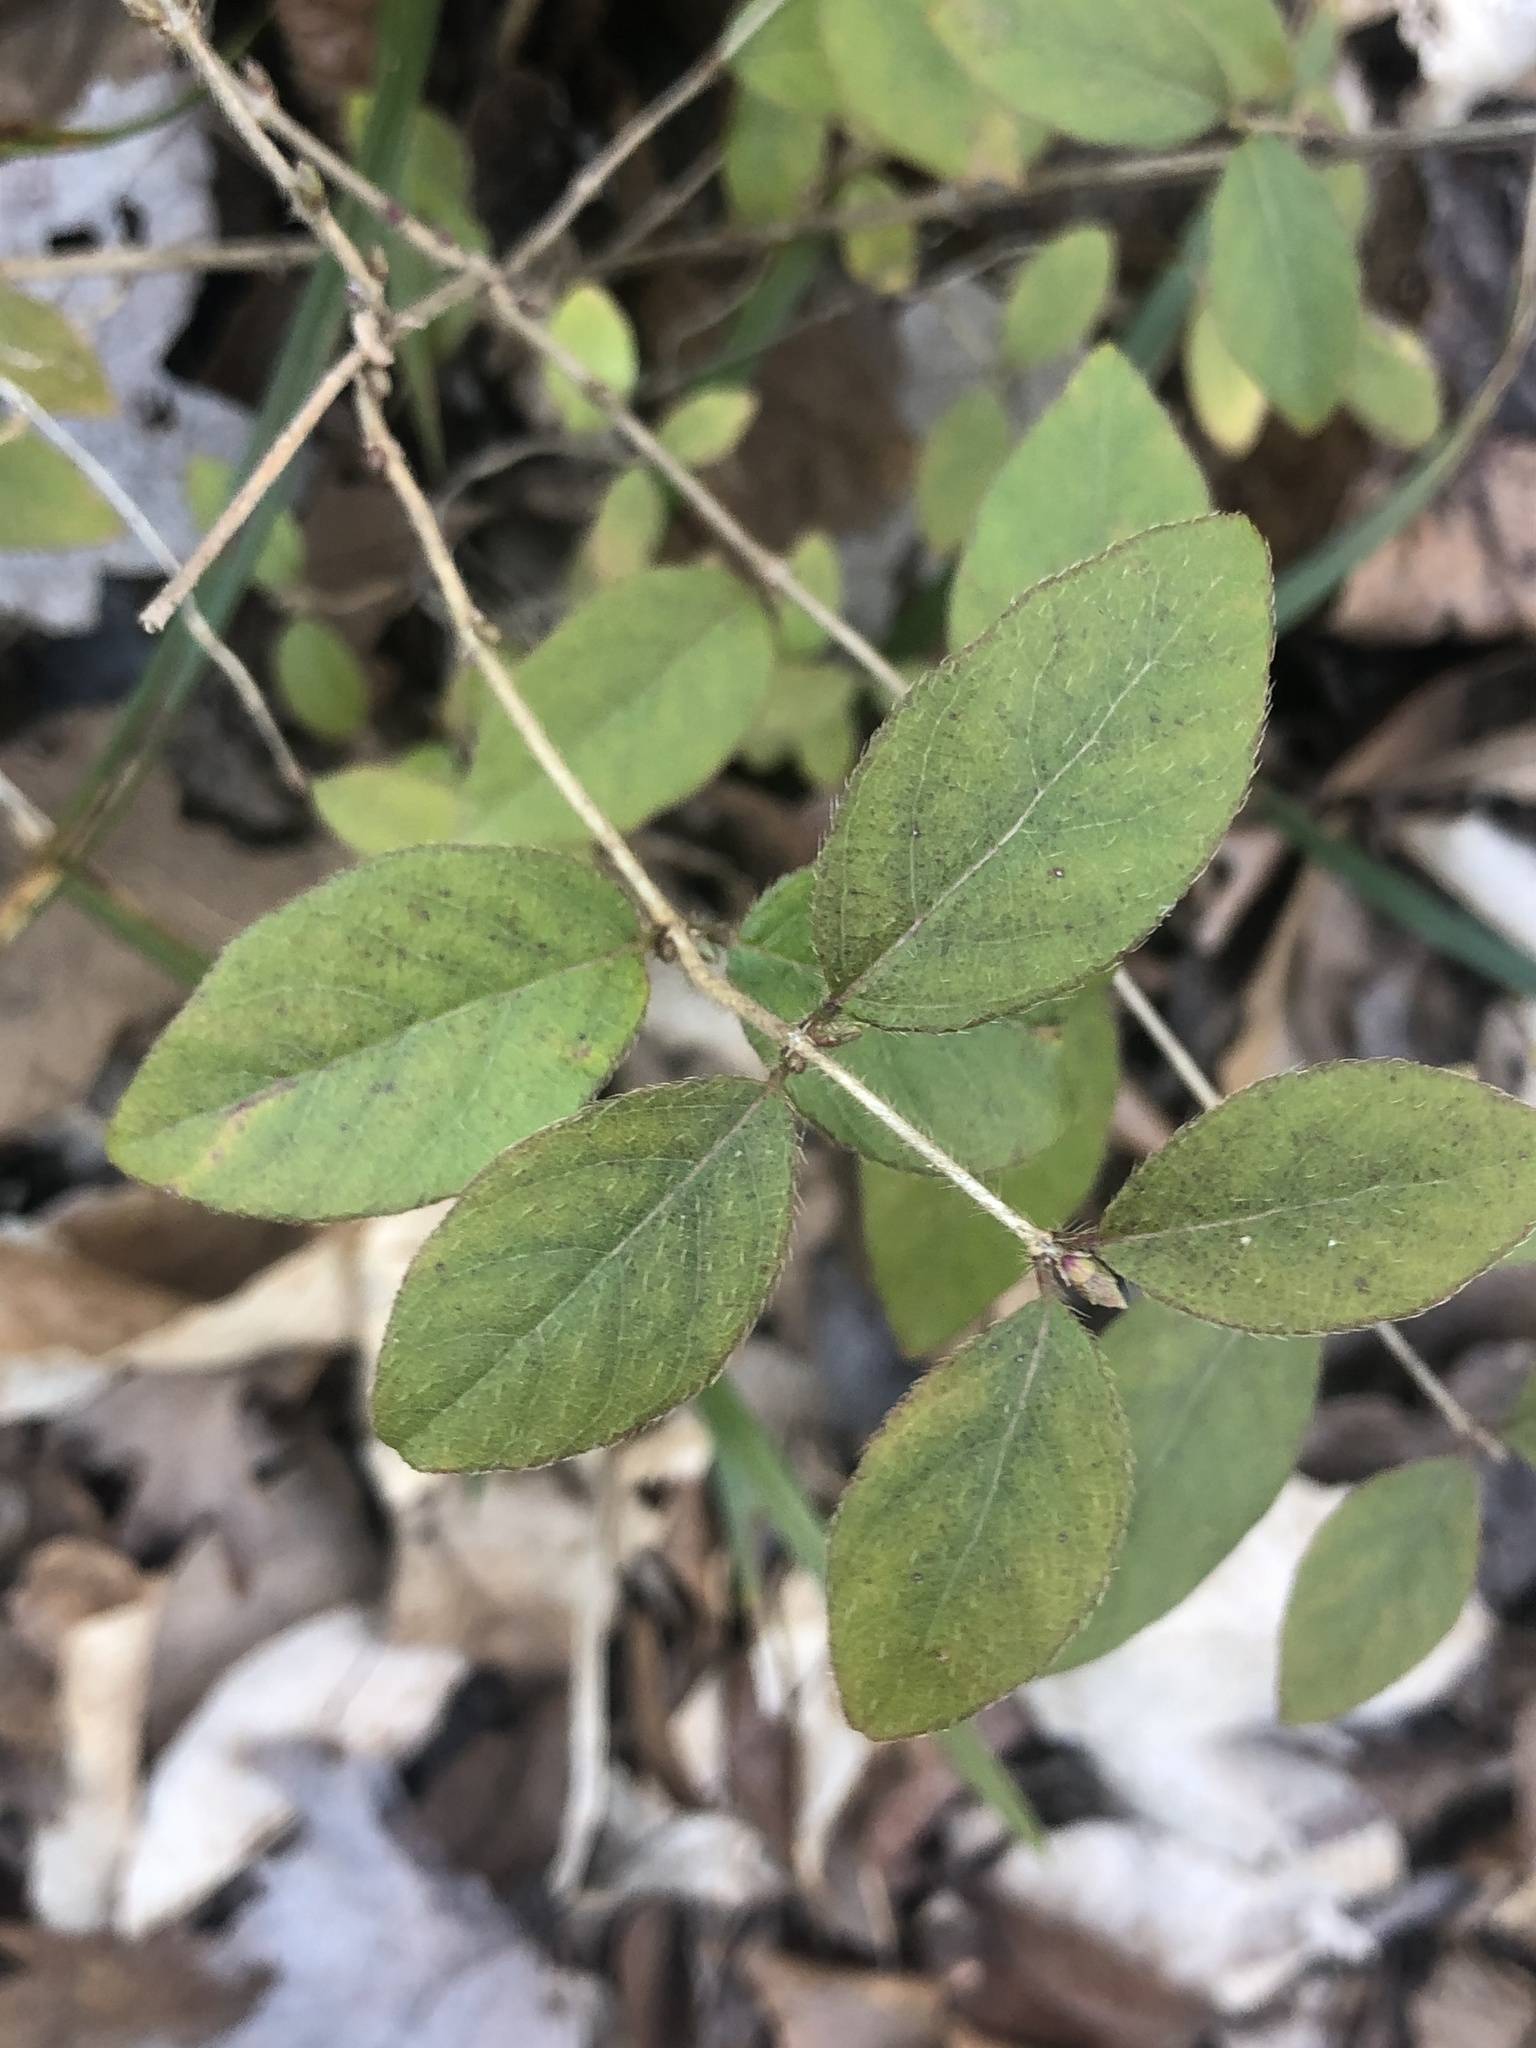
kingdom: Plantae
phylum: Tracheophyta
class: Magnoliopsida
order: Dipsacales
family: Caprifoliaceae
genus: Lonicera
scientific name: Lonicera fragrantissima
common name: Fragrant honeysuckle
